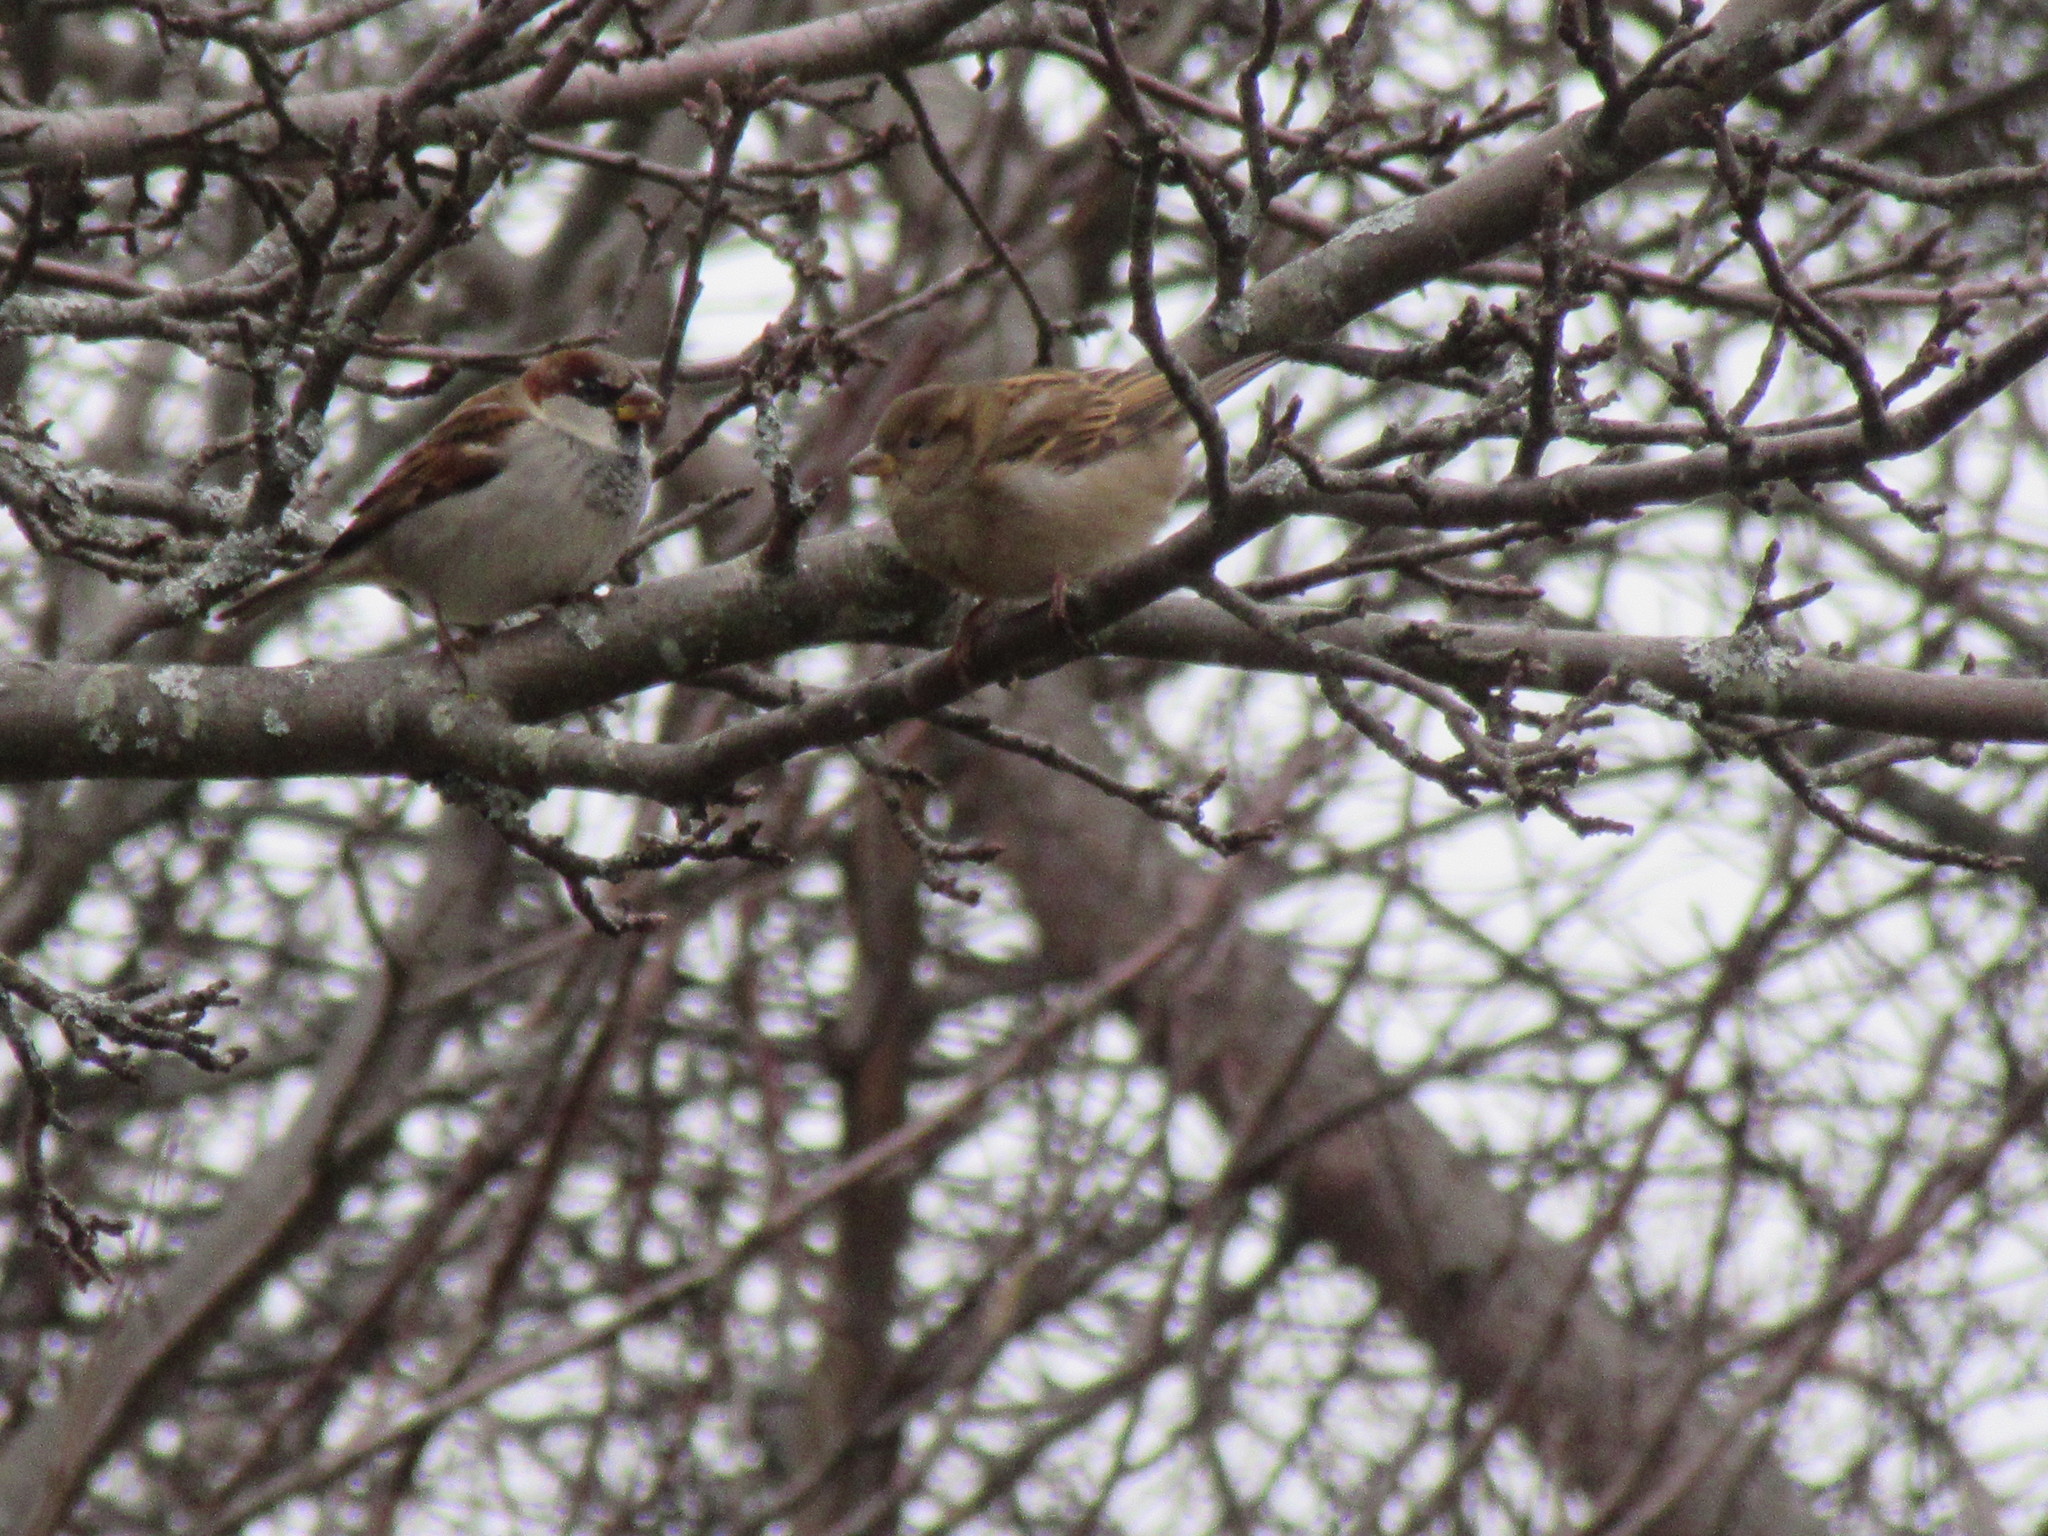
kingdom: Animalia
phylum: Chordata
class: Aves
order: Passeriformes
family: Passeridae
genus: Passer
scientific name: Passer domesticus
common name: House sparrow
